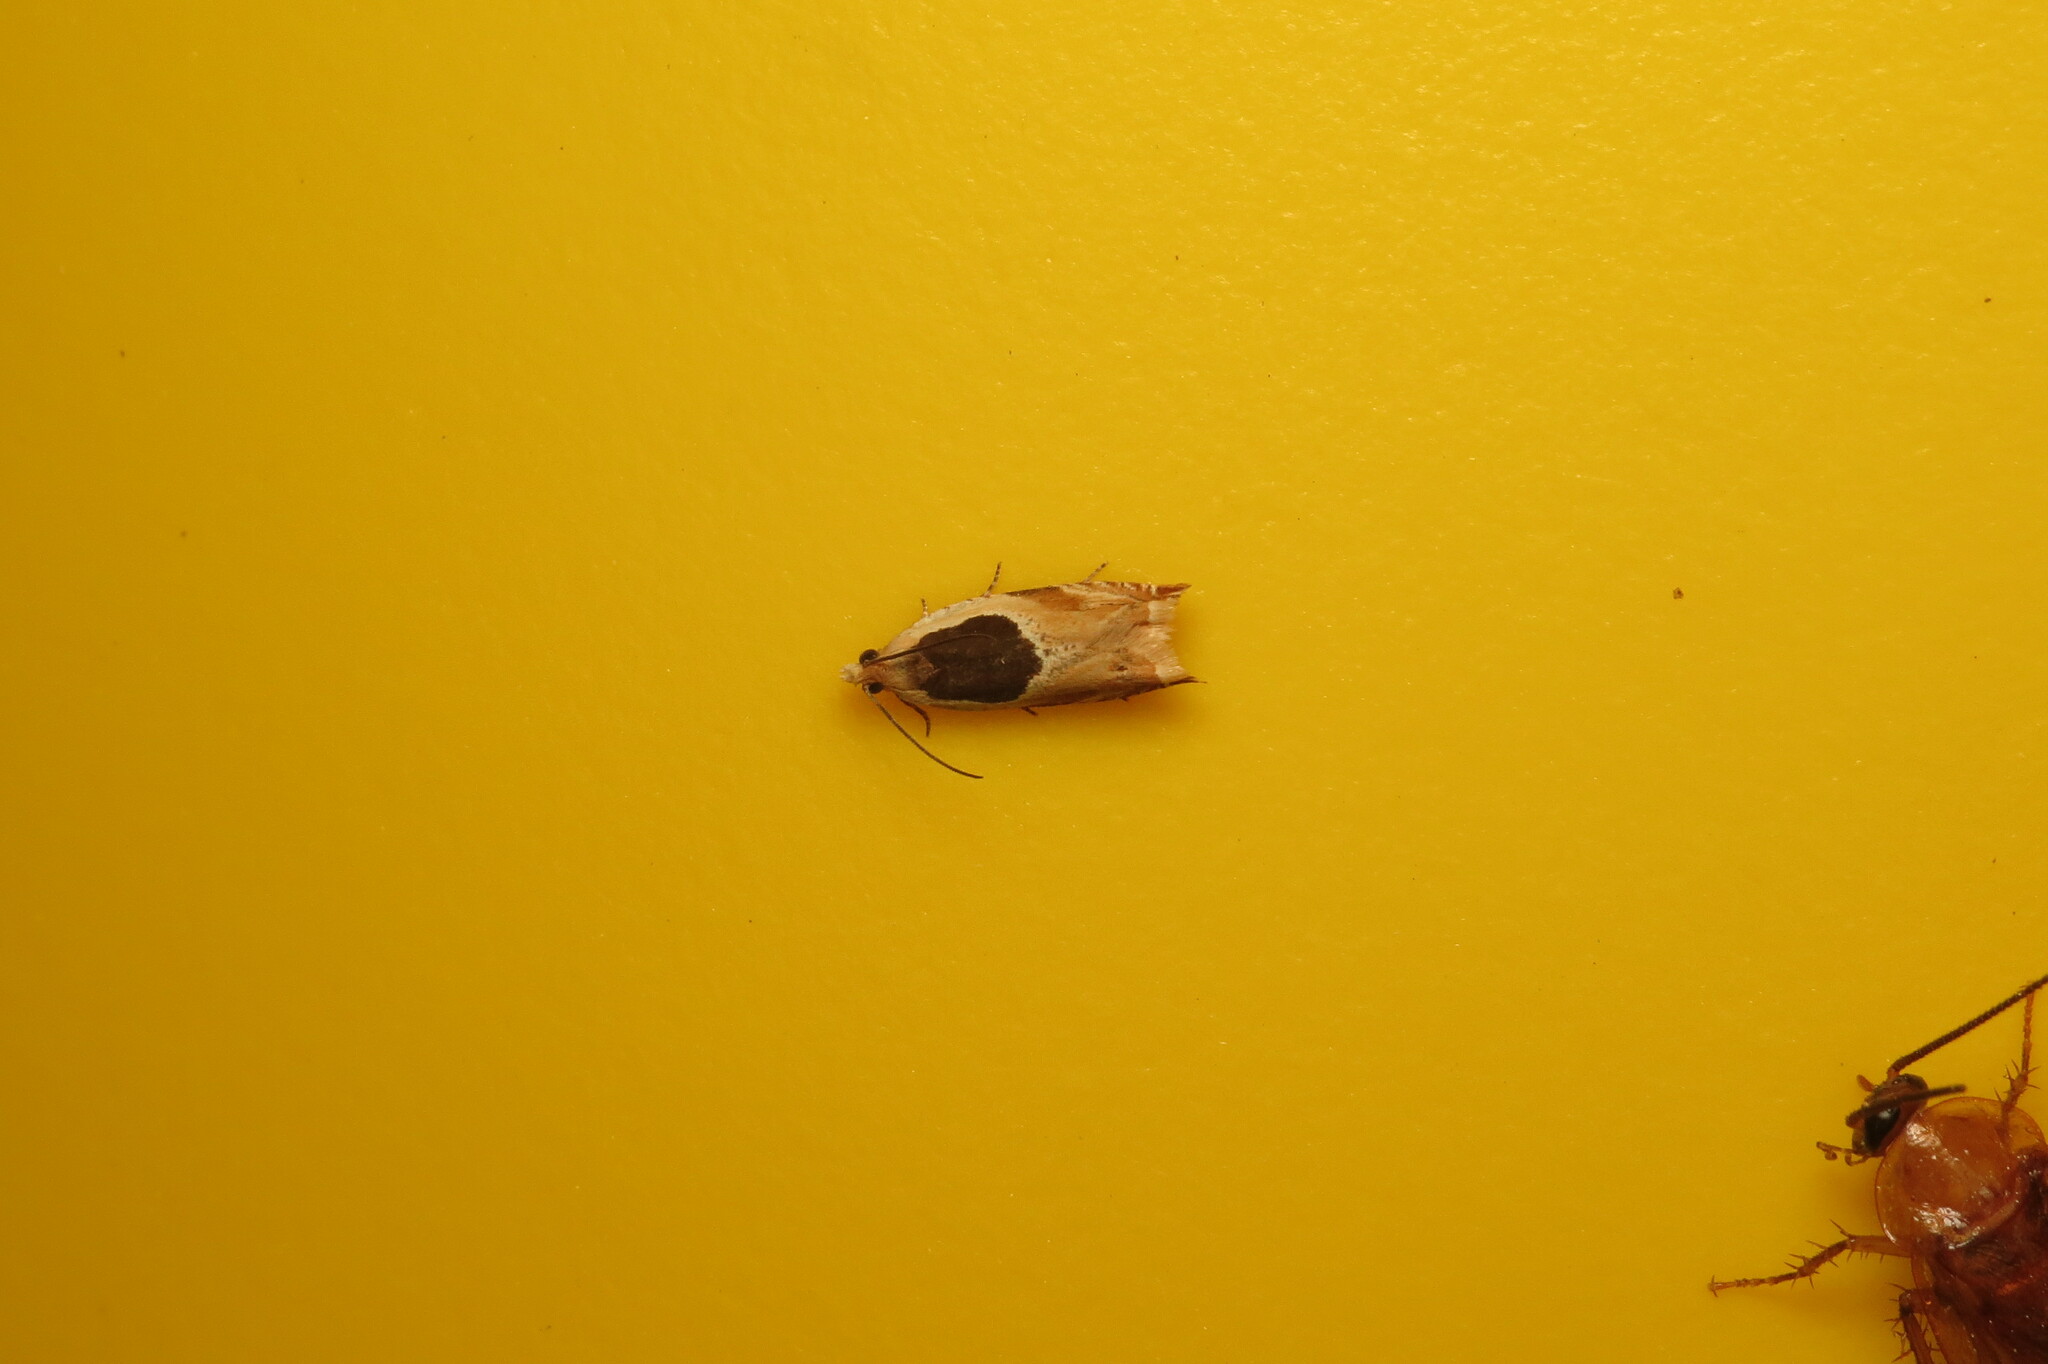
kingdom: Animalia
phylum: Arthropoda
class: Insecta
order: Lepidoptera
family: Tortricidae
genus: Ancylis
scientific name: Ancylis burgessiana
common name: Oak leaffolder moth
